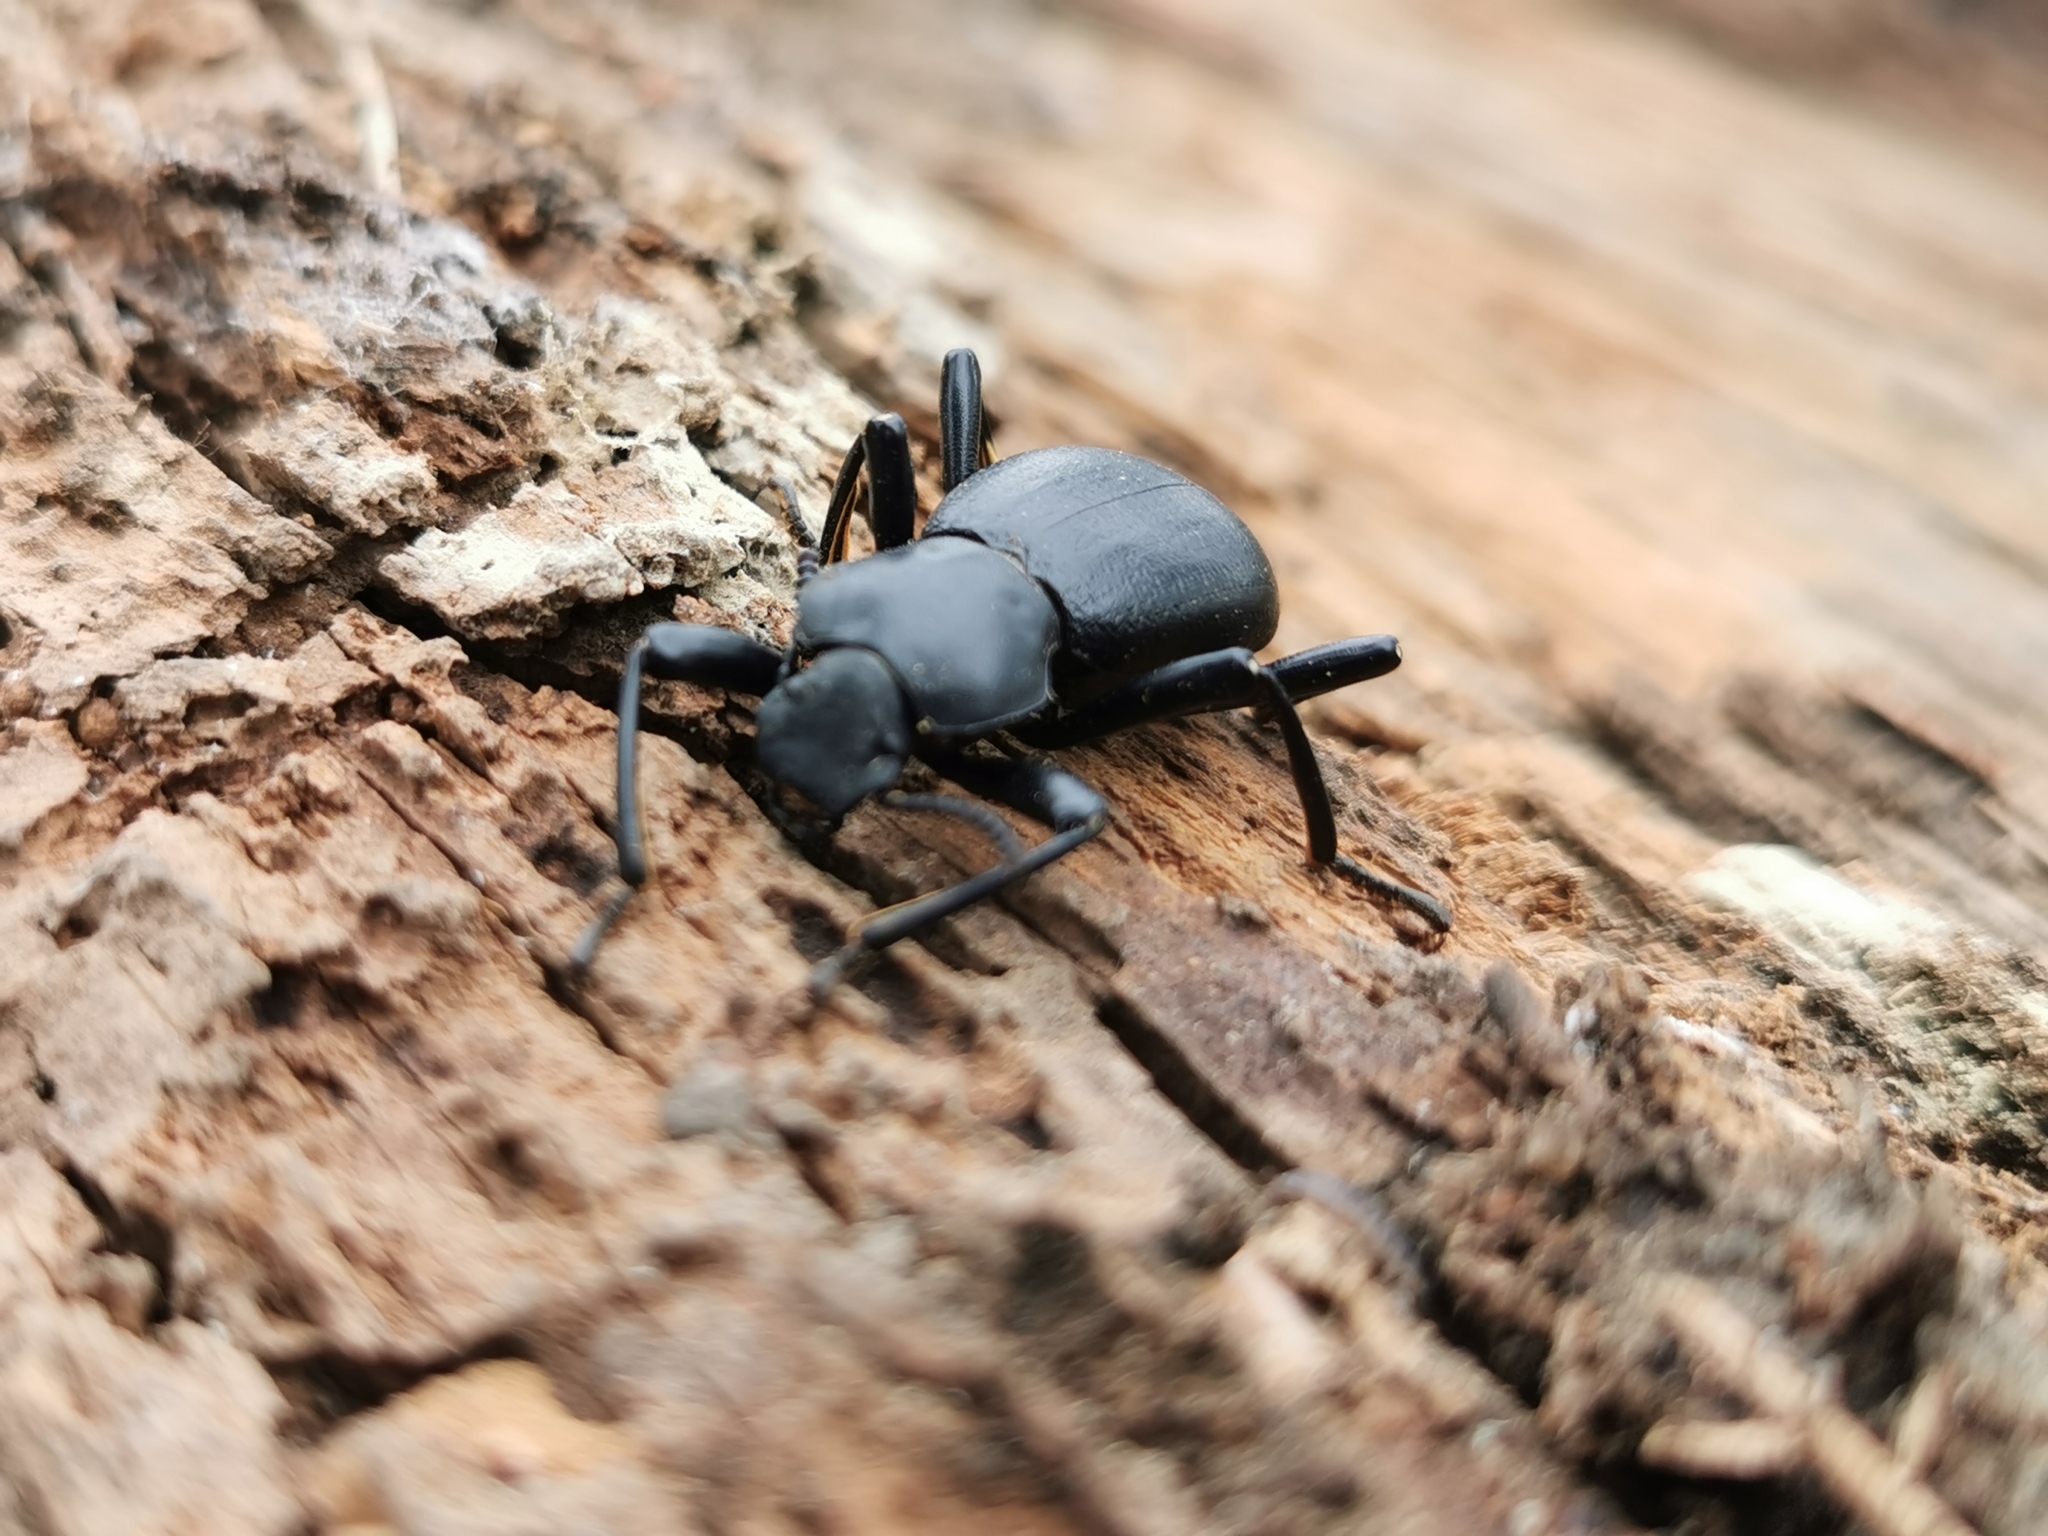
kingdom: Animalia
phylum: Arthropoda
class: Insecta
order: Coleoptera
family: Tenebrionidae
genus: Coelocnemis
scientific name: Coelocnemis dilaticollis
